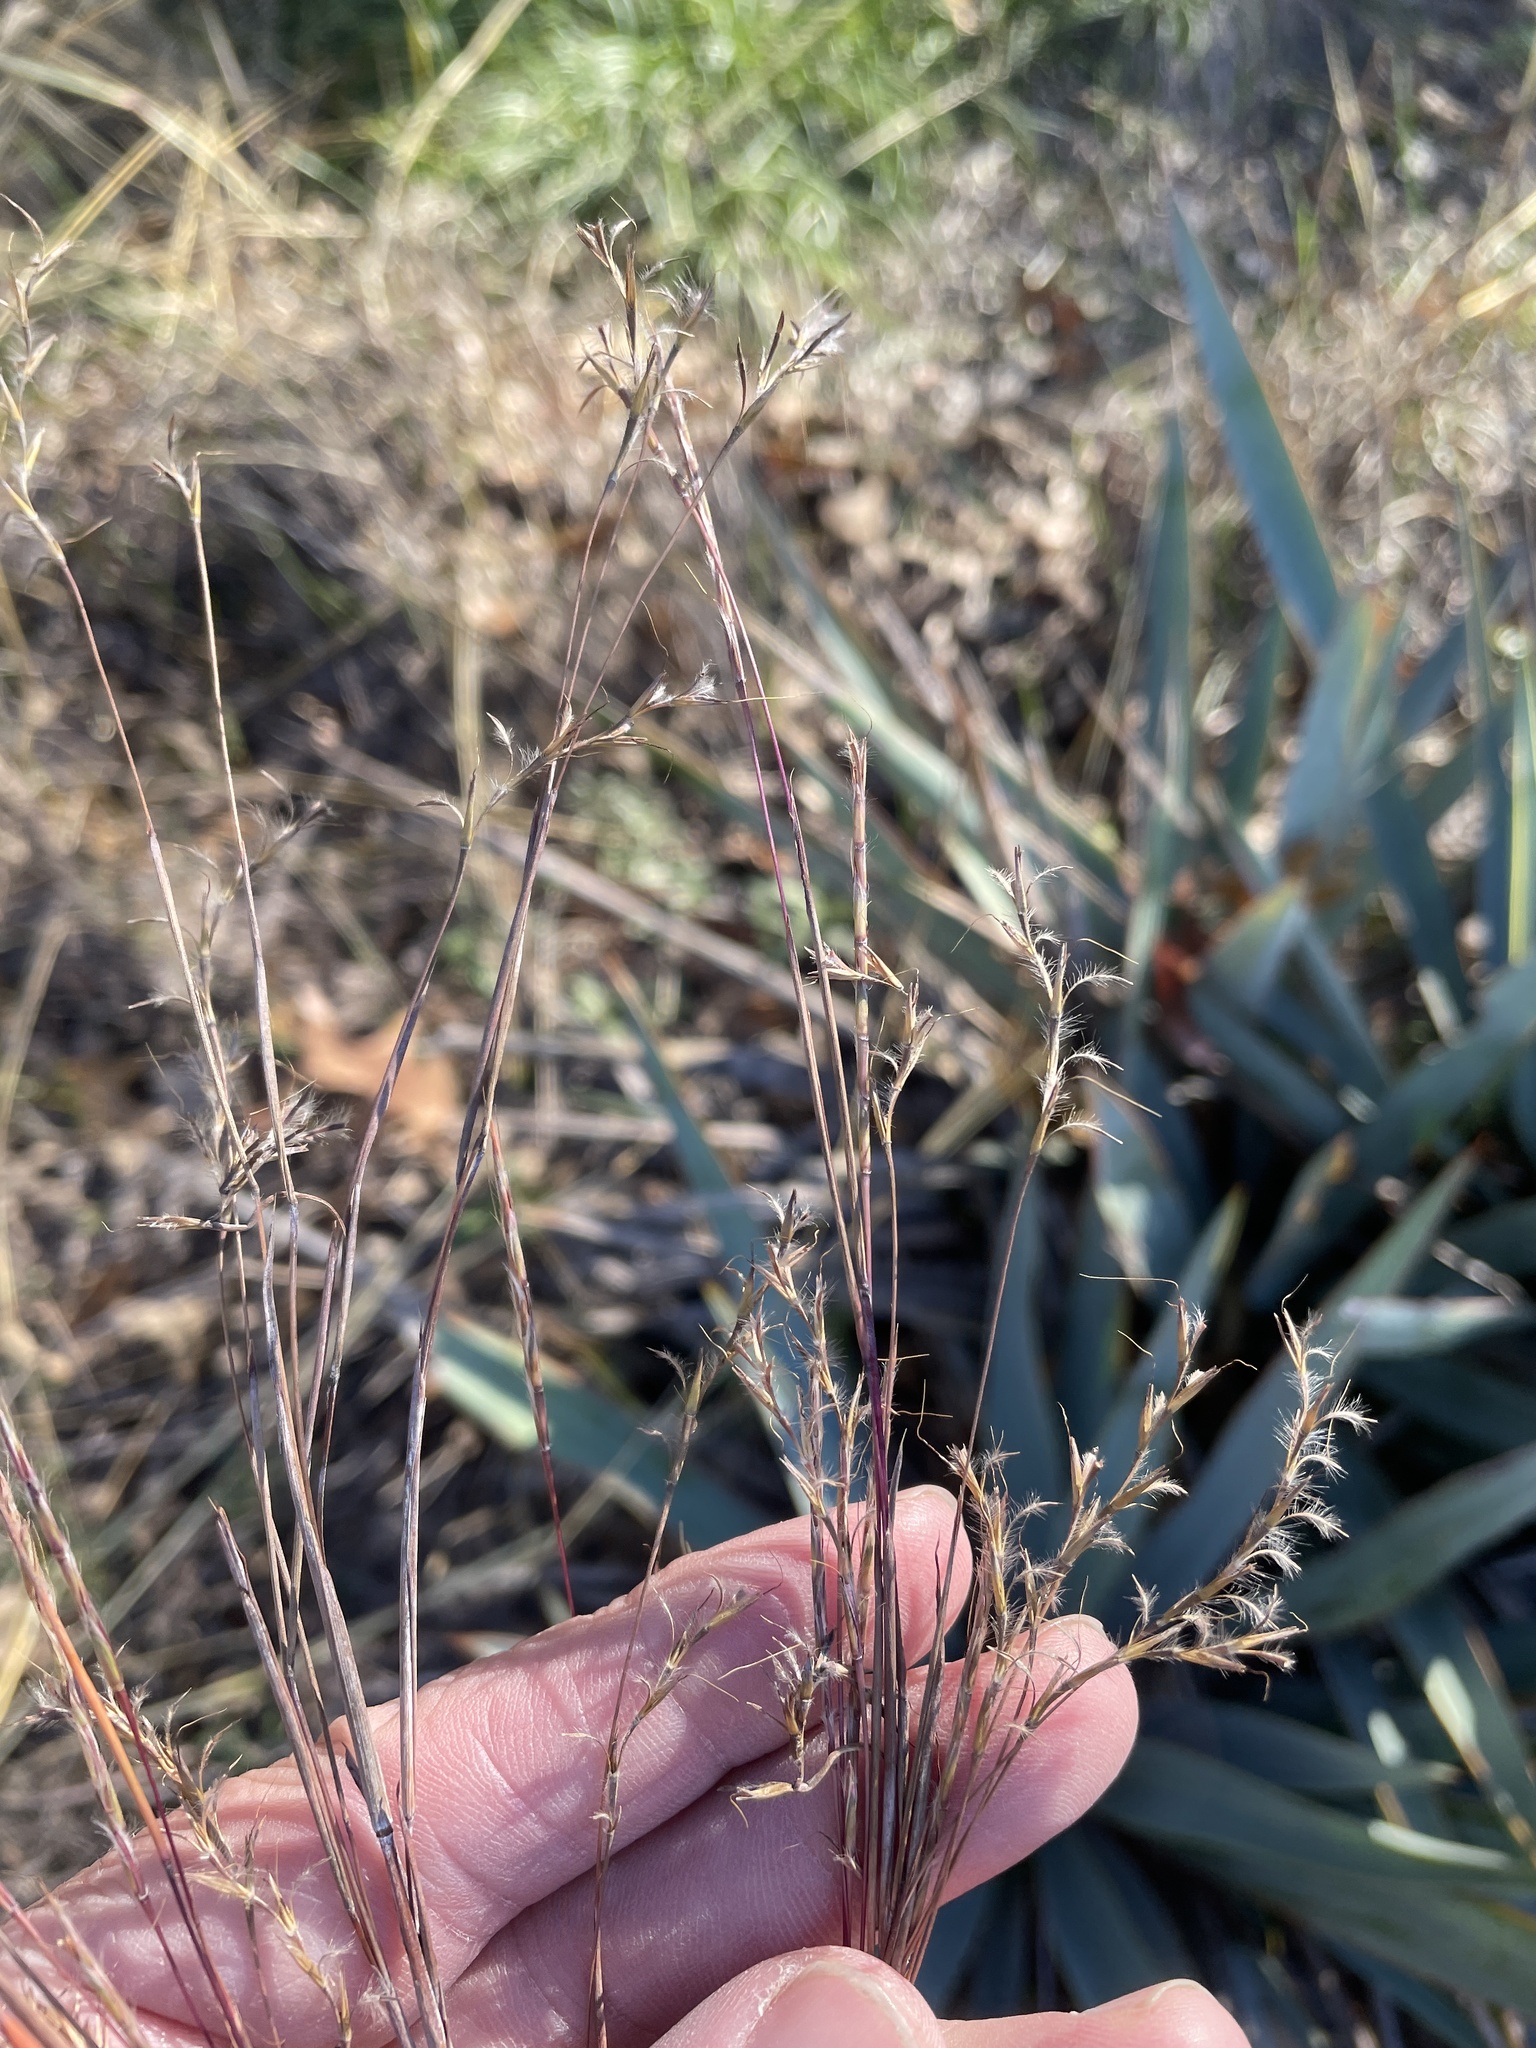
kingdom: Plantae
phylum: Tracheophyta
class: Liliopsida
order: Poales
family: Poaceae
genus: Schizachyrium
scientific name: Schizachyrium scoparium
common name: Little bluestem
